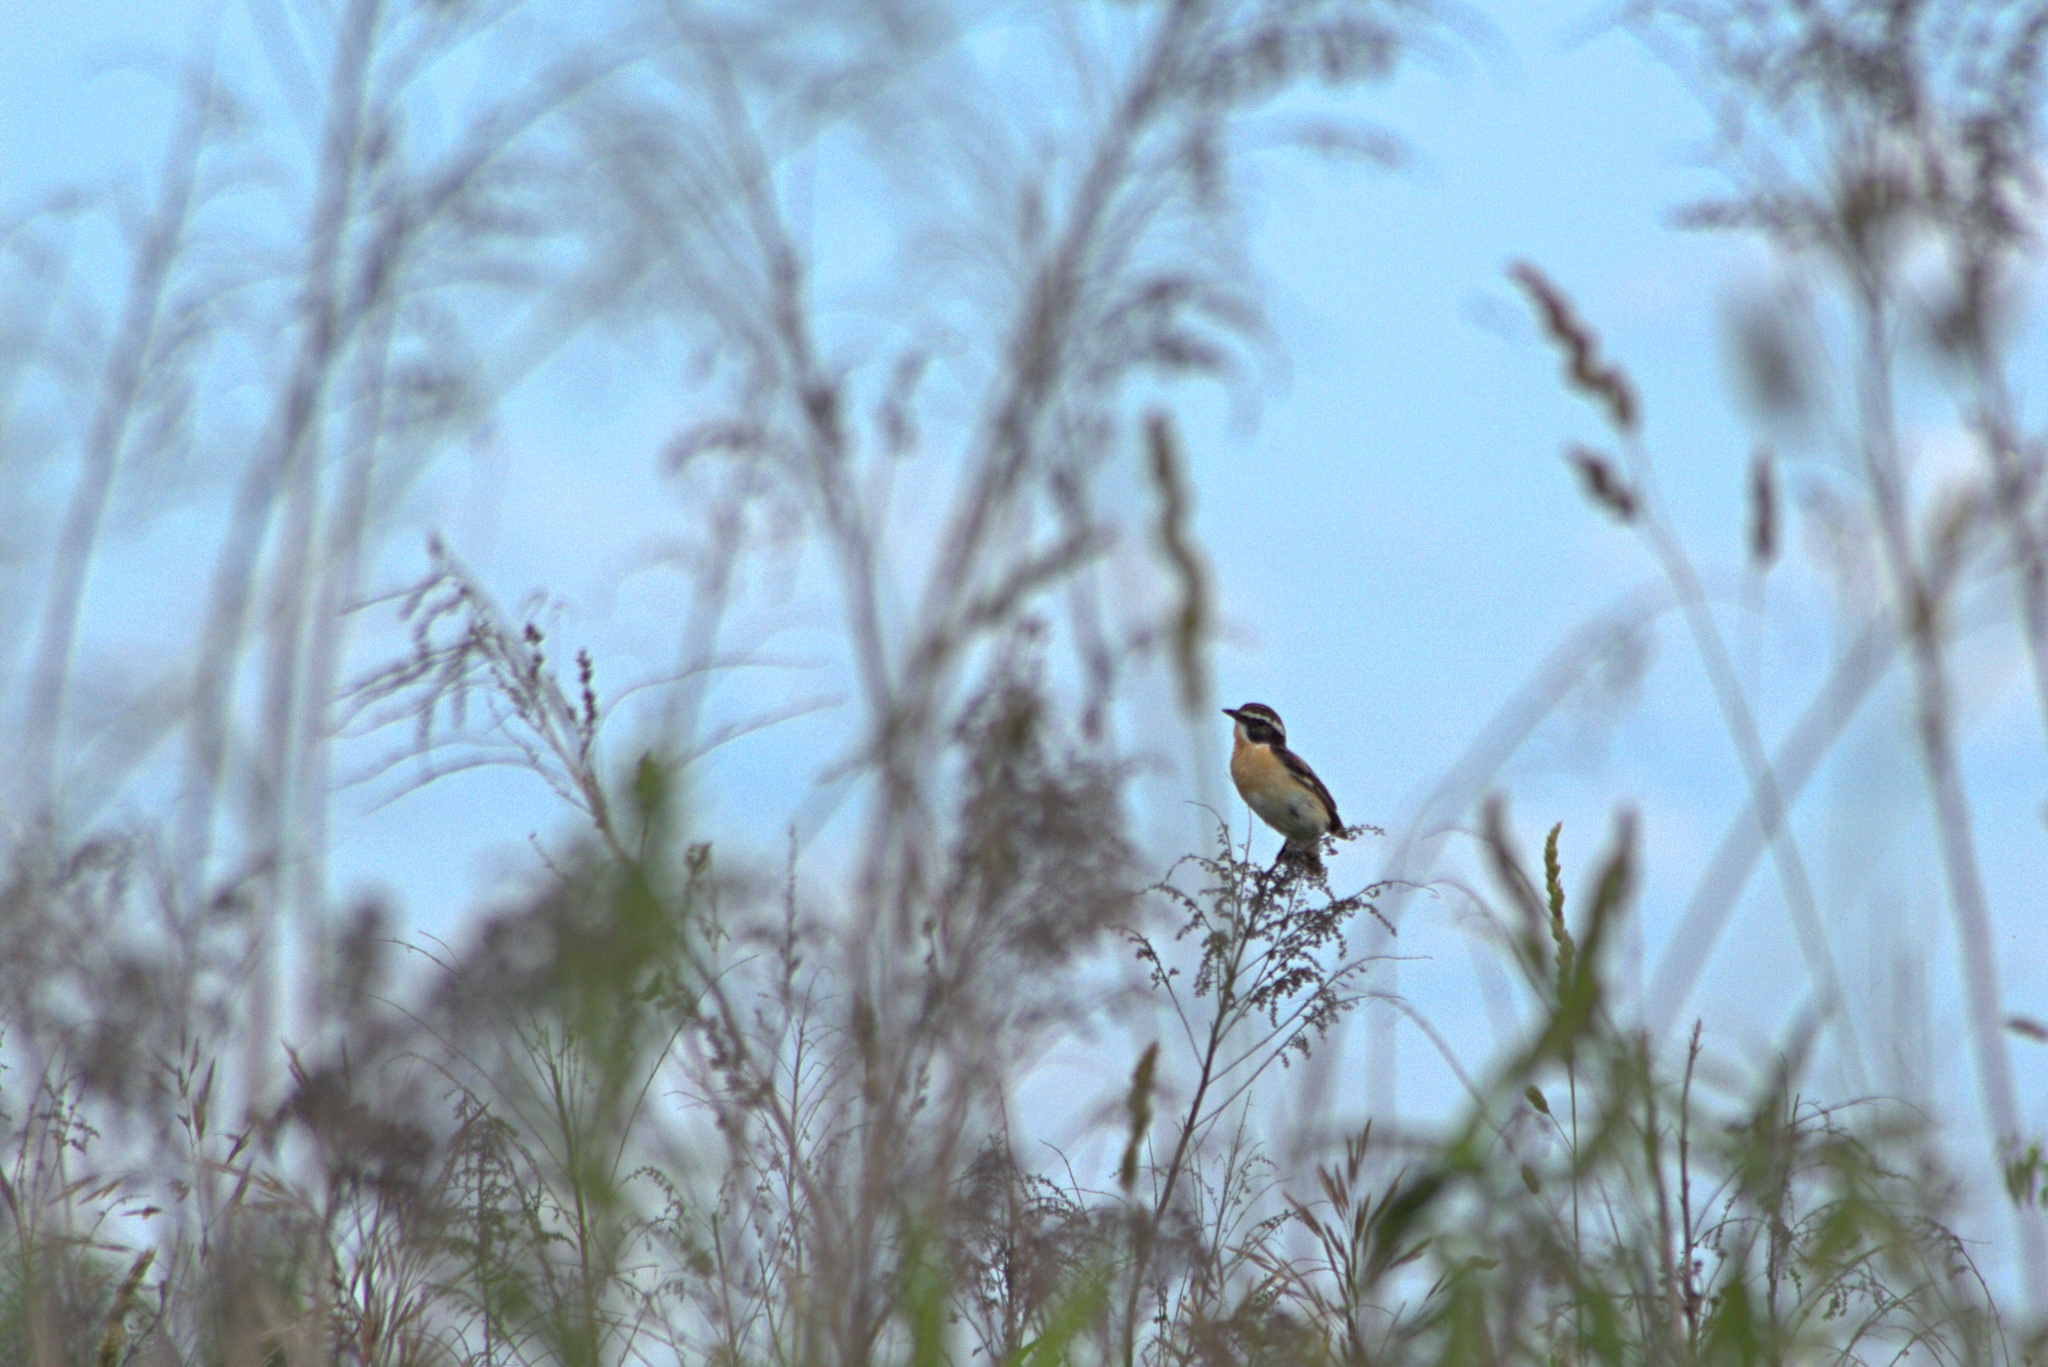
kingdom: Animalia
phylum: Chordata
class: Aves
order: Passeriformes
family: Muscicapidae
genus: Saxicola
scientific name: Saxicola rubetra
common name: Whinchat
